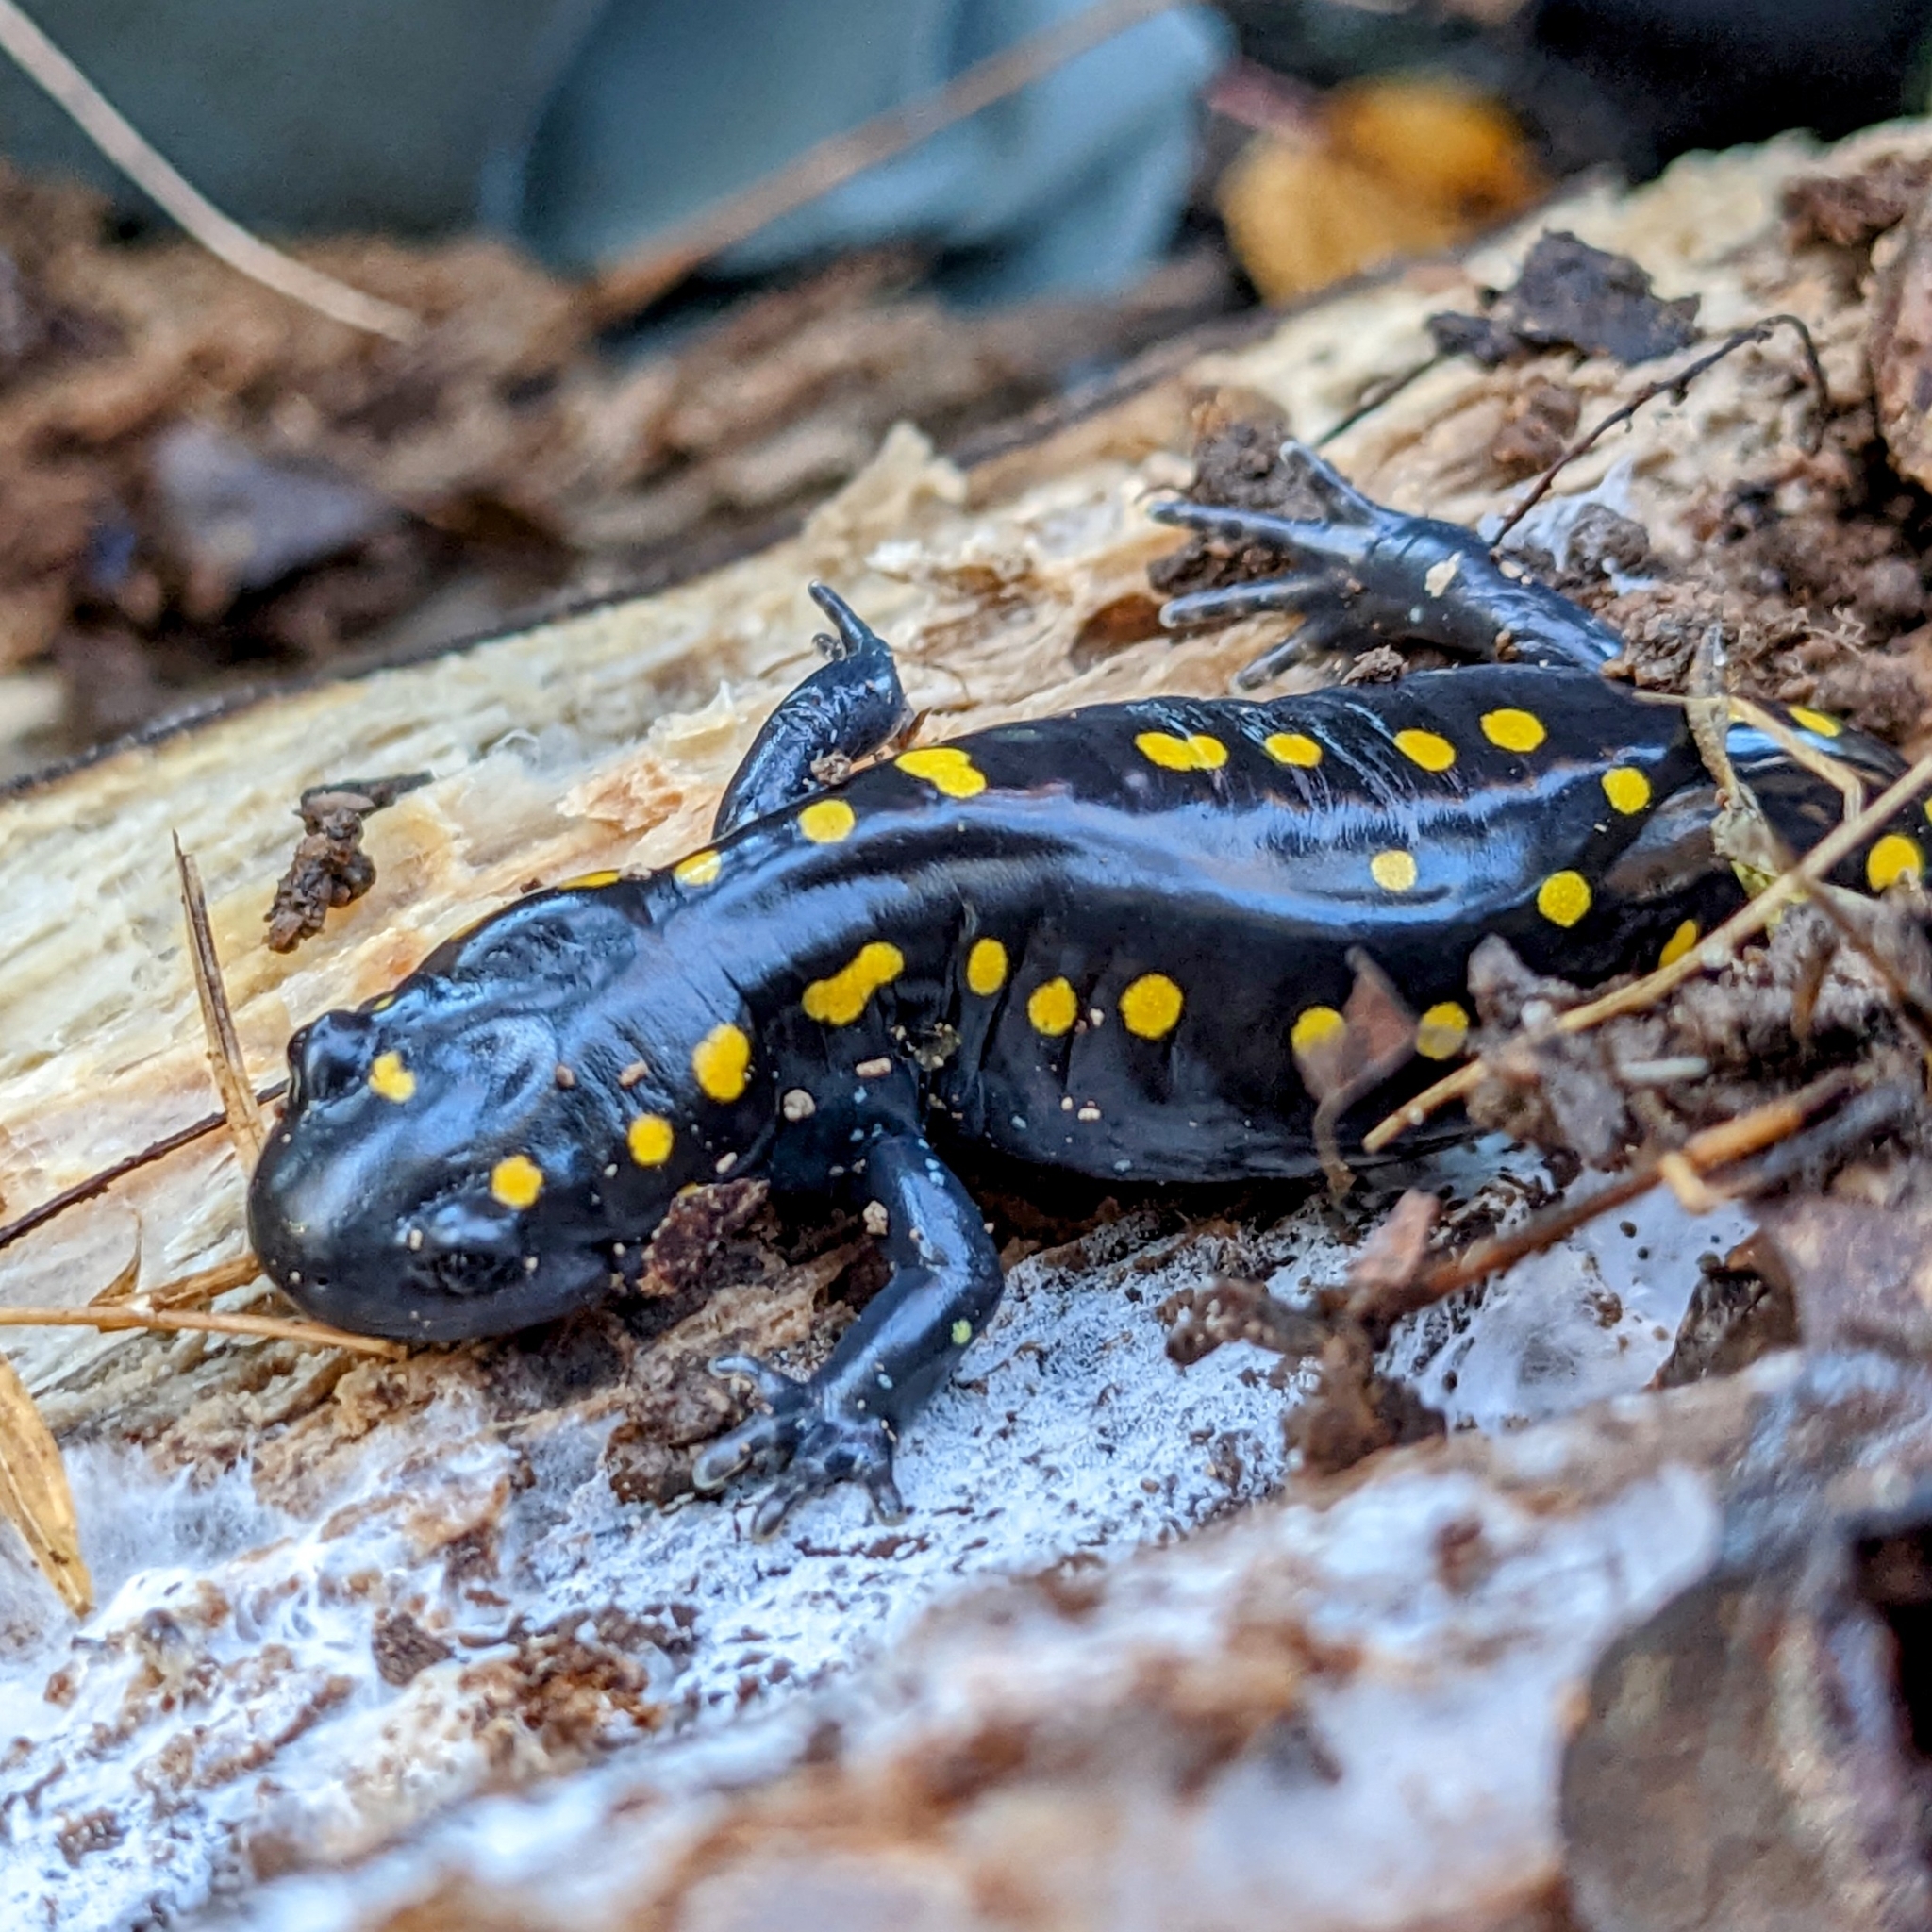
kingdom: Animalia
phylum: Chordata
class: Amphibia
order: Caudata
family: Ambystomatidae
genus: Ambystoma
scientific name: Ambystoma maculatum
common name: Spotted salamander
